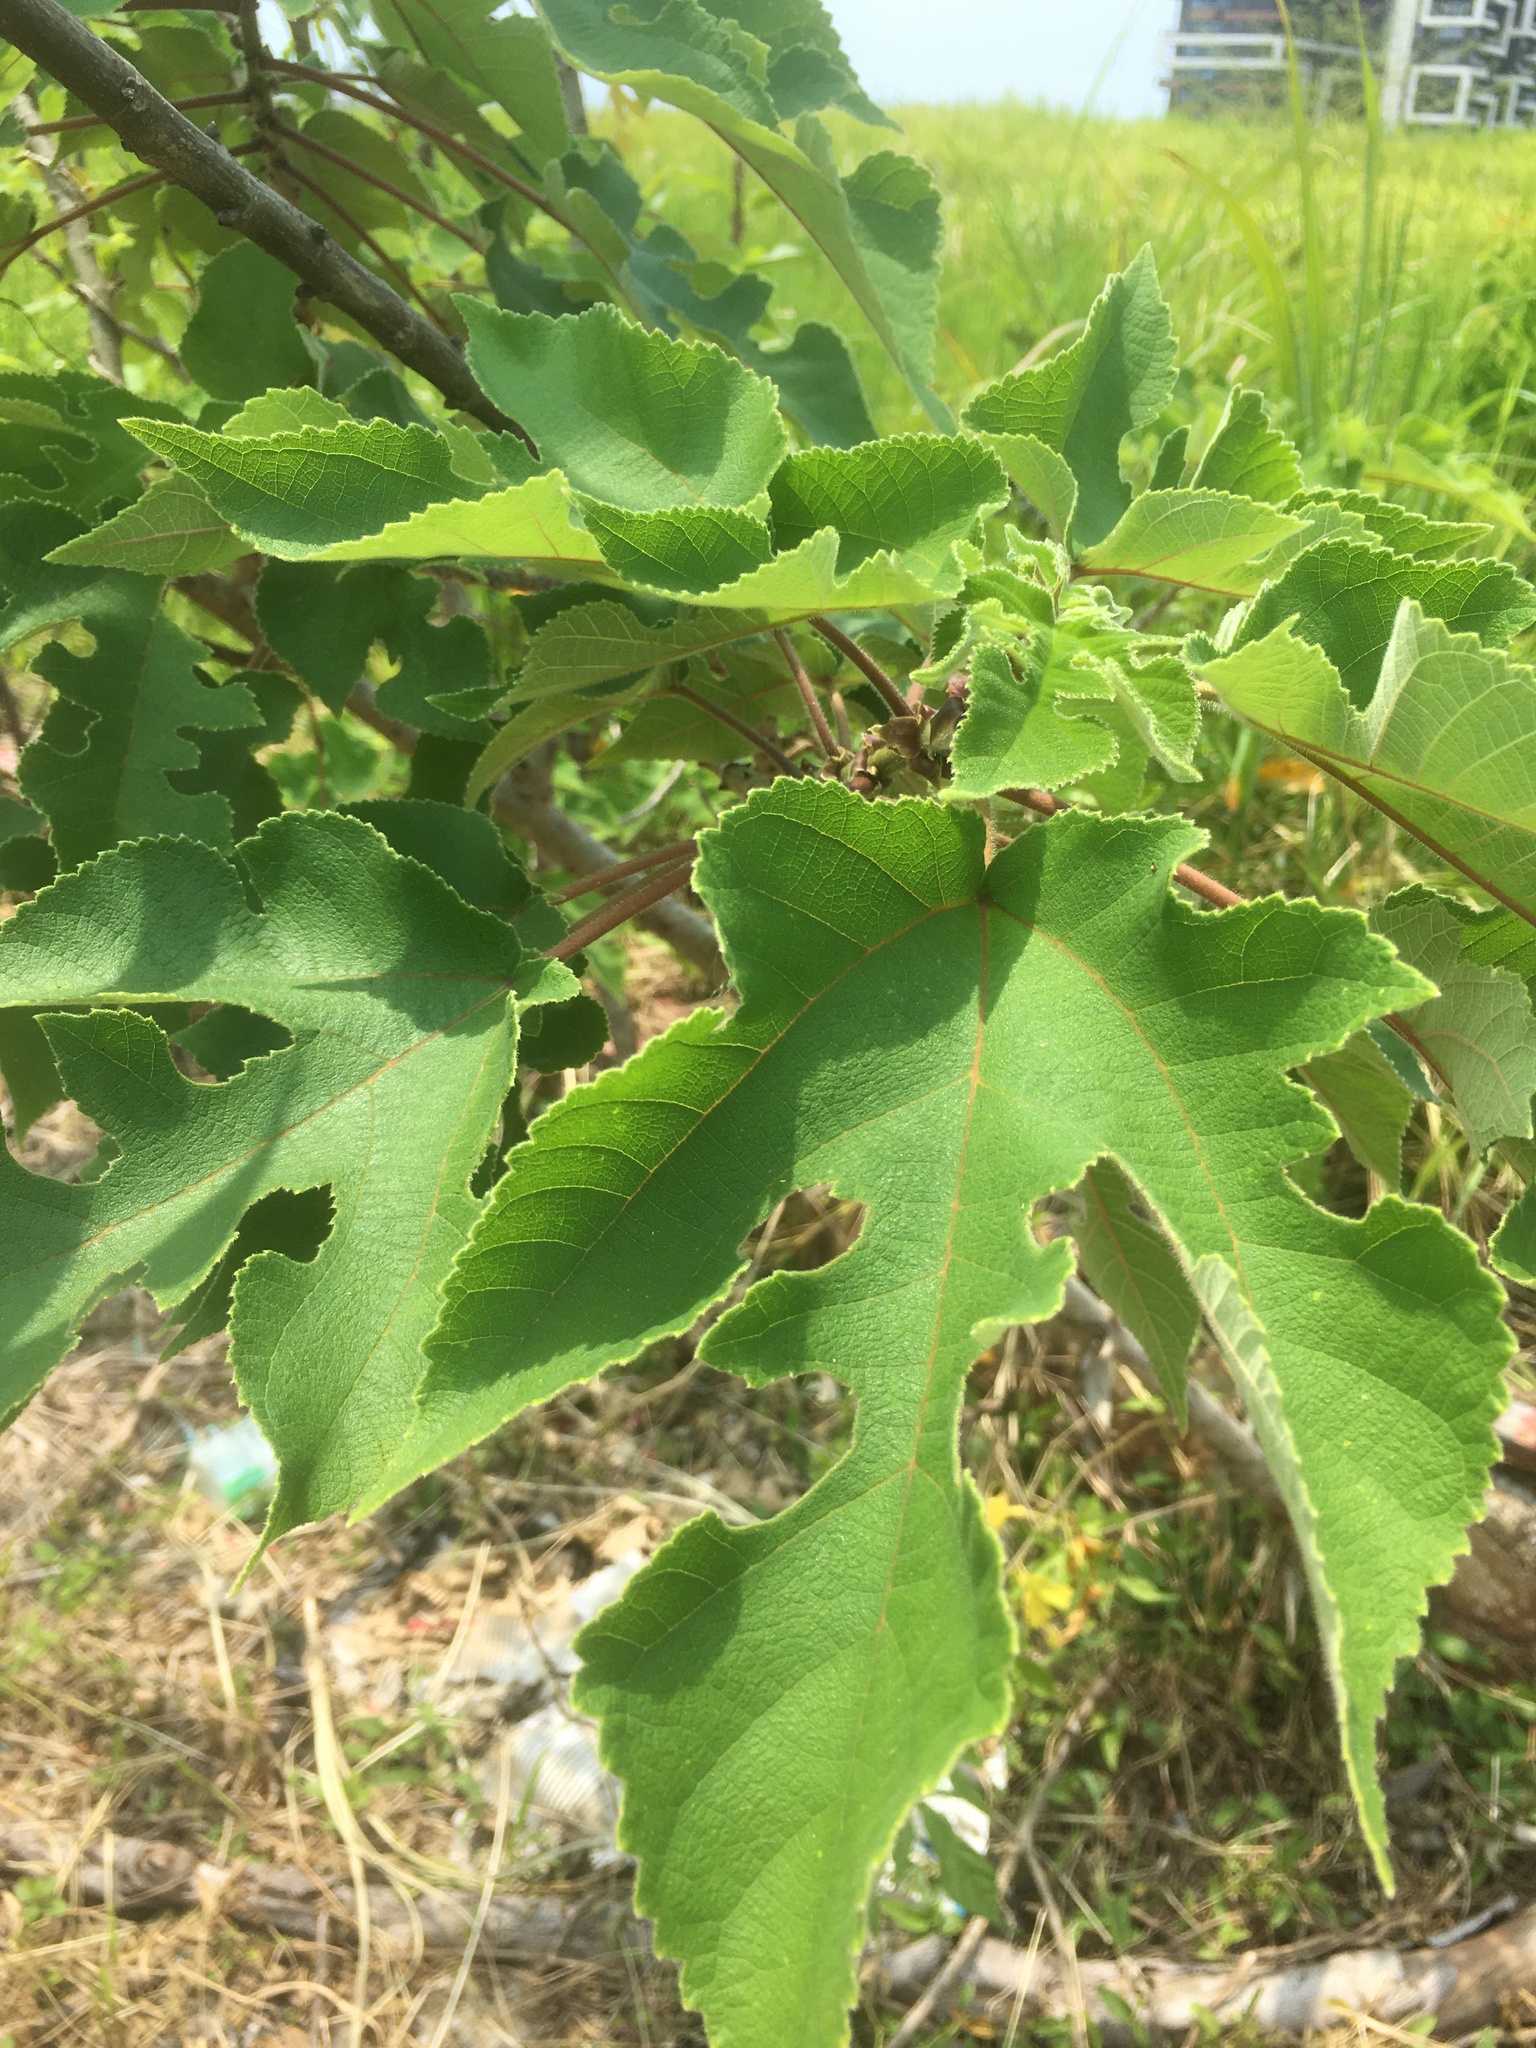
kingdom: Plantae
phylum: Tracheophyta
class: Magnoliopsida
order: Rosales
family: Moraceae
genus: Broussonetia
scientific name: Broussonetia papyrifera
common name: Paper mulberry
